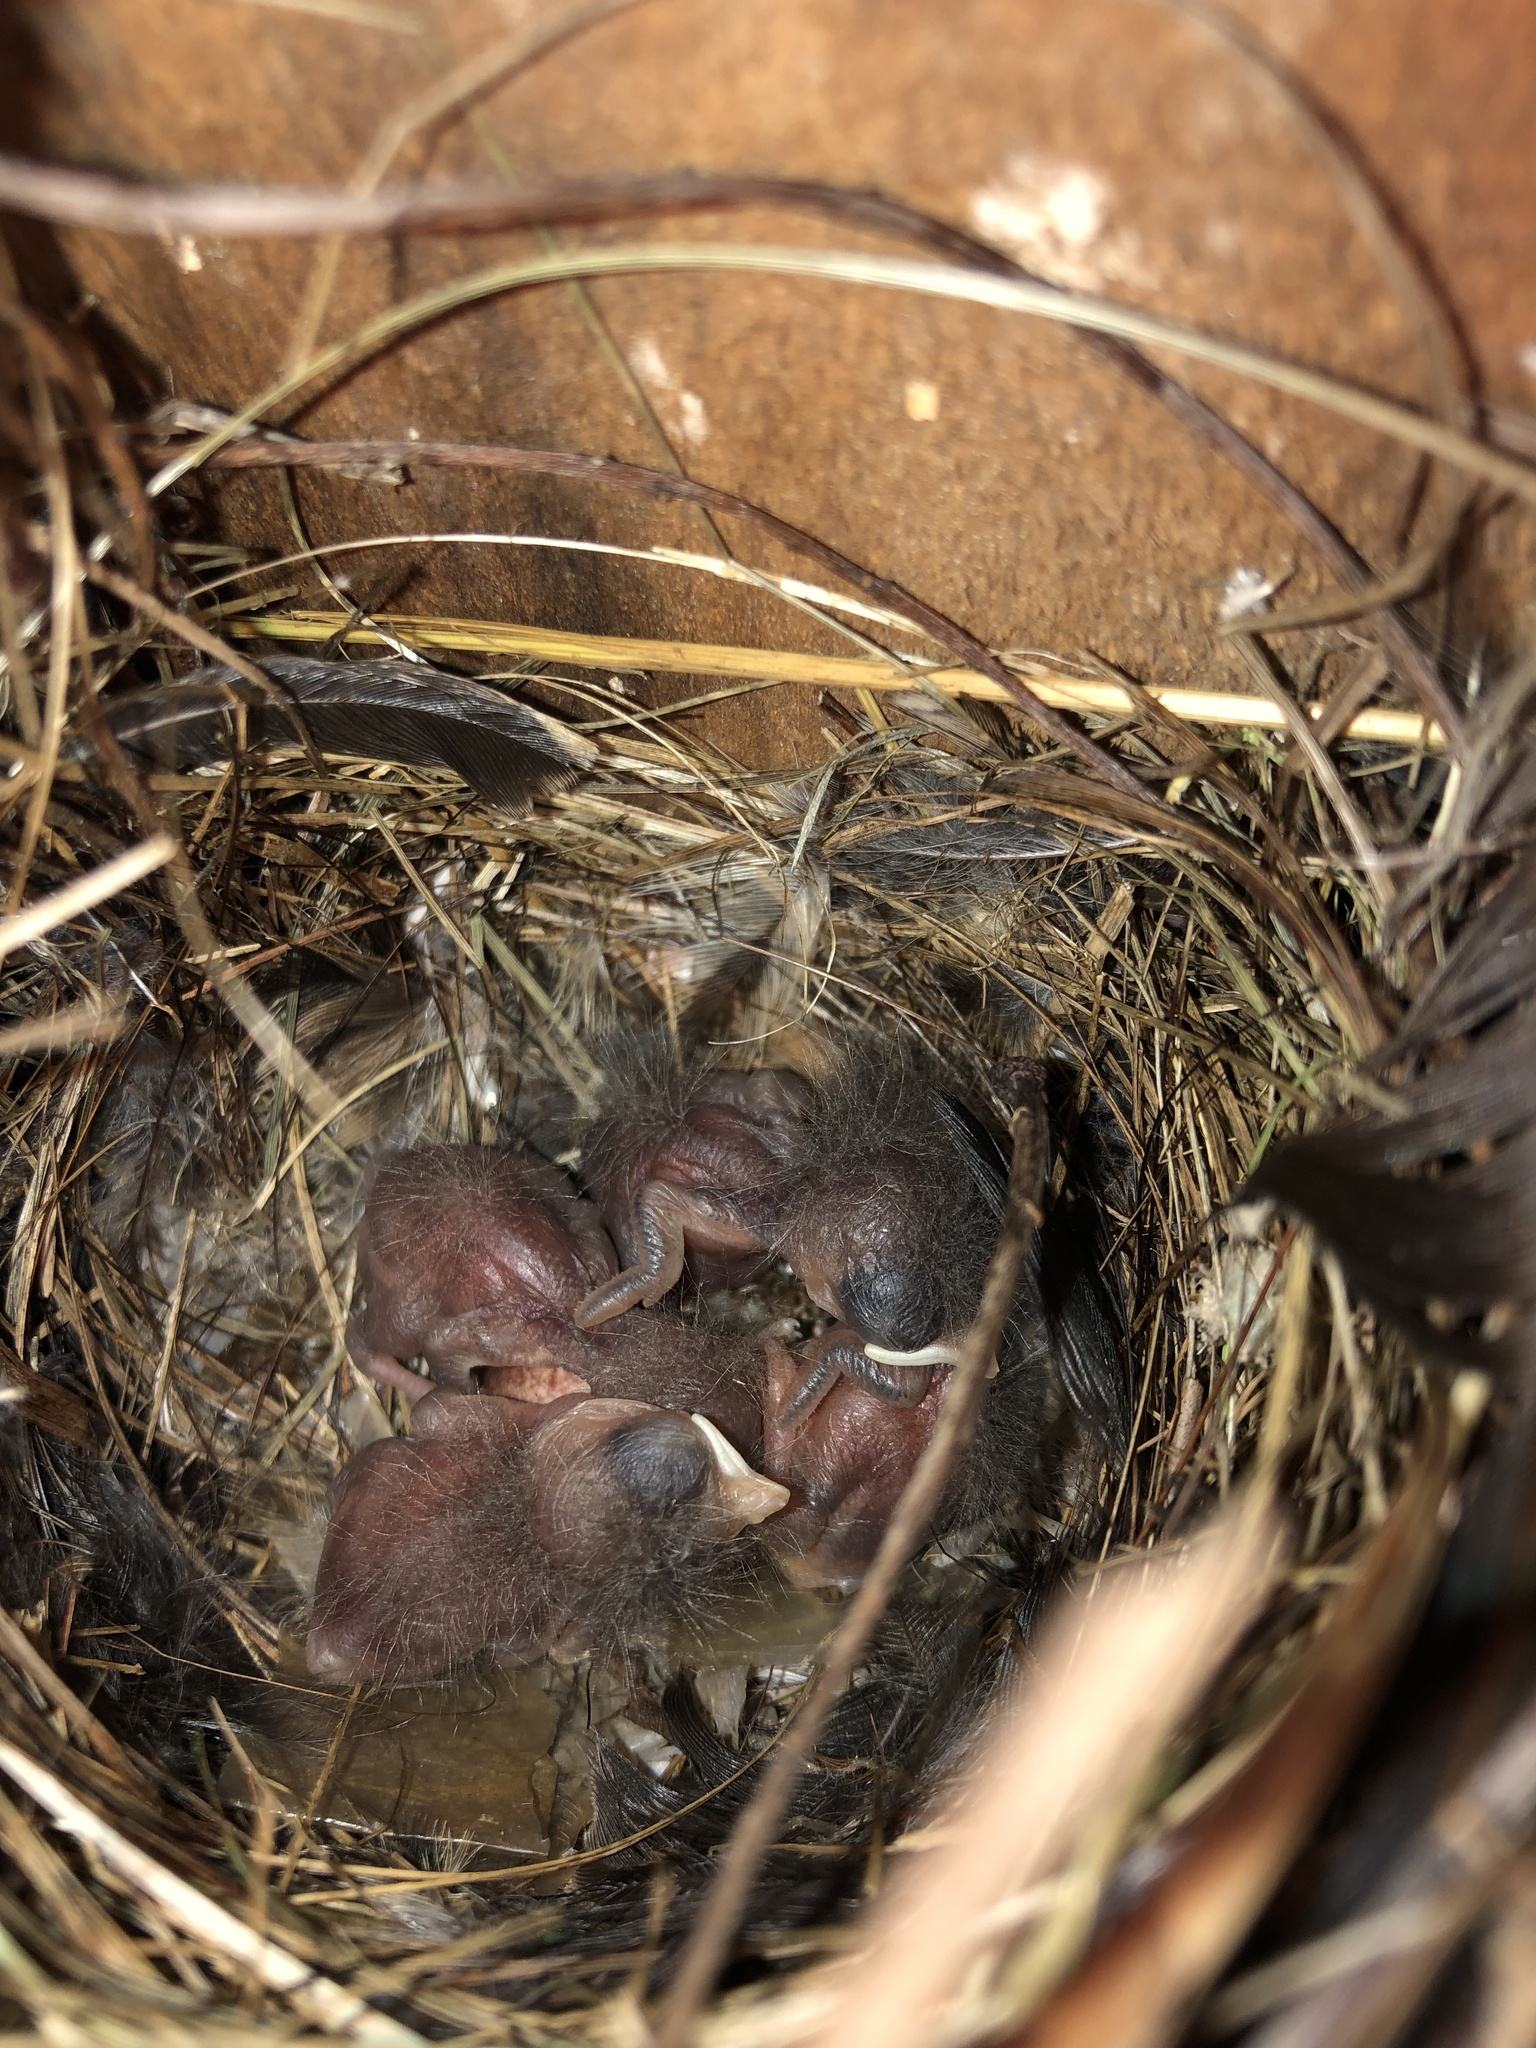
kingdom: Animalia
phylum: Chordata
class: Aves
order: Passeriformes
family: Troglodytidae
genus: Troglodytes
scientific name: Troglodytes aedon
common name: House wren
